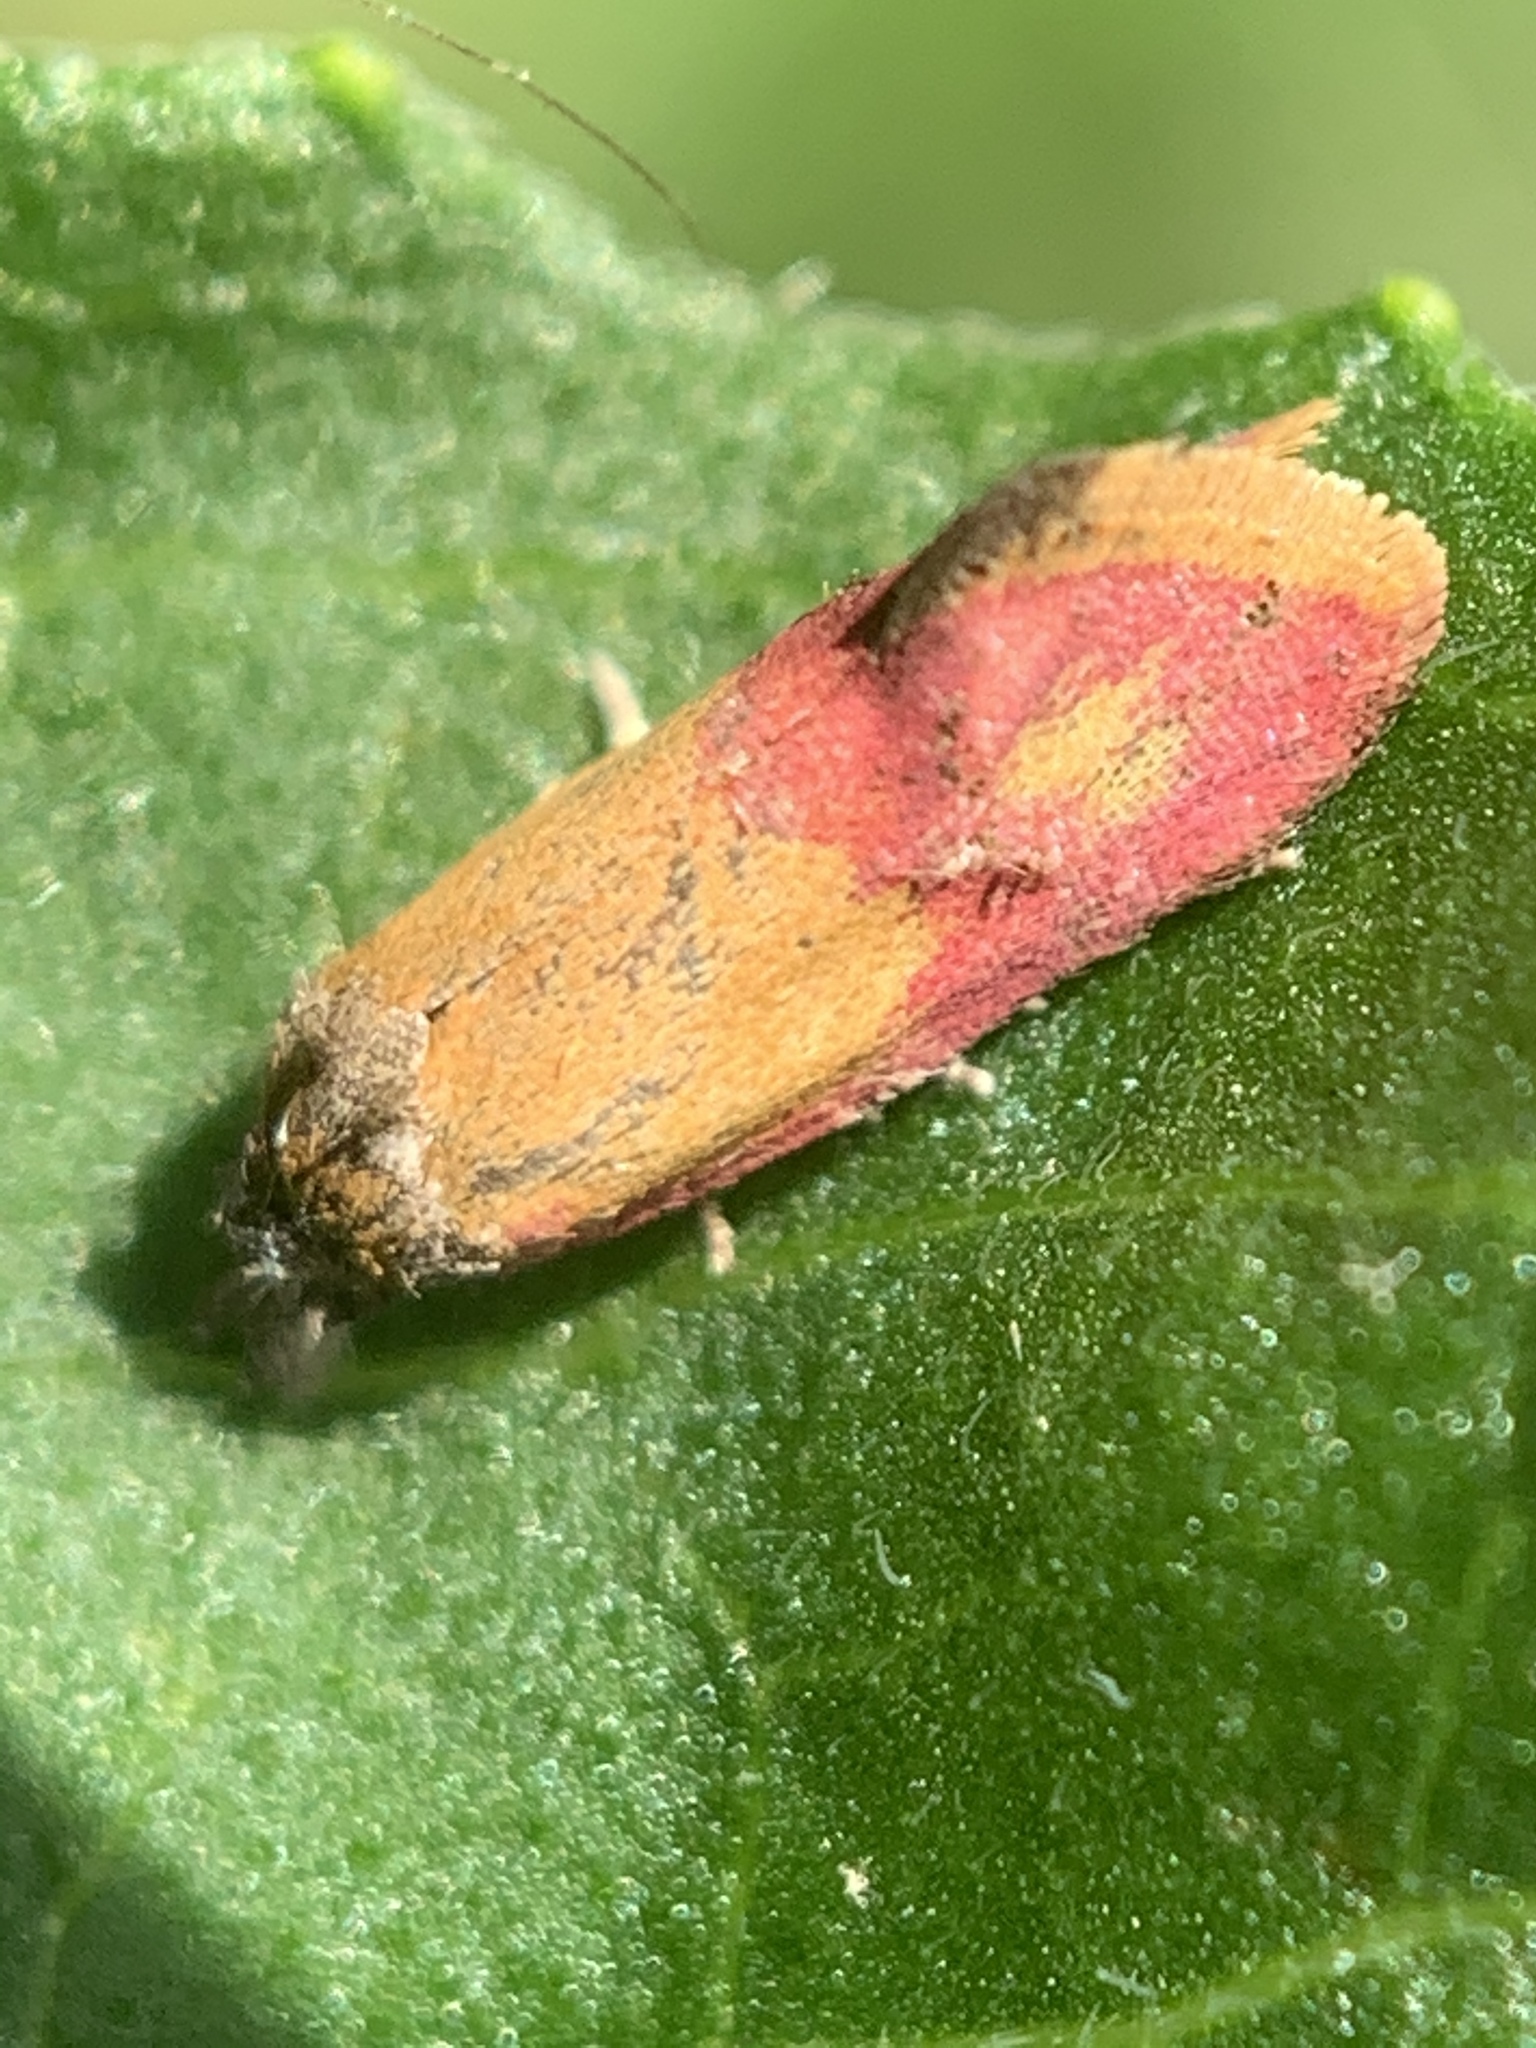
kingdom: Animalia
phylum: Arthropoda
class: Insecta
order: Lepidoptera
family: Tortricidae
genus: Conchylis
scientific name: Conchylis oenotherana
